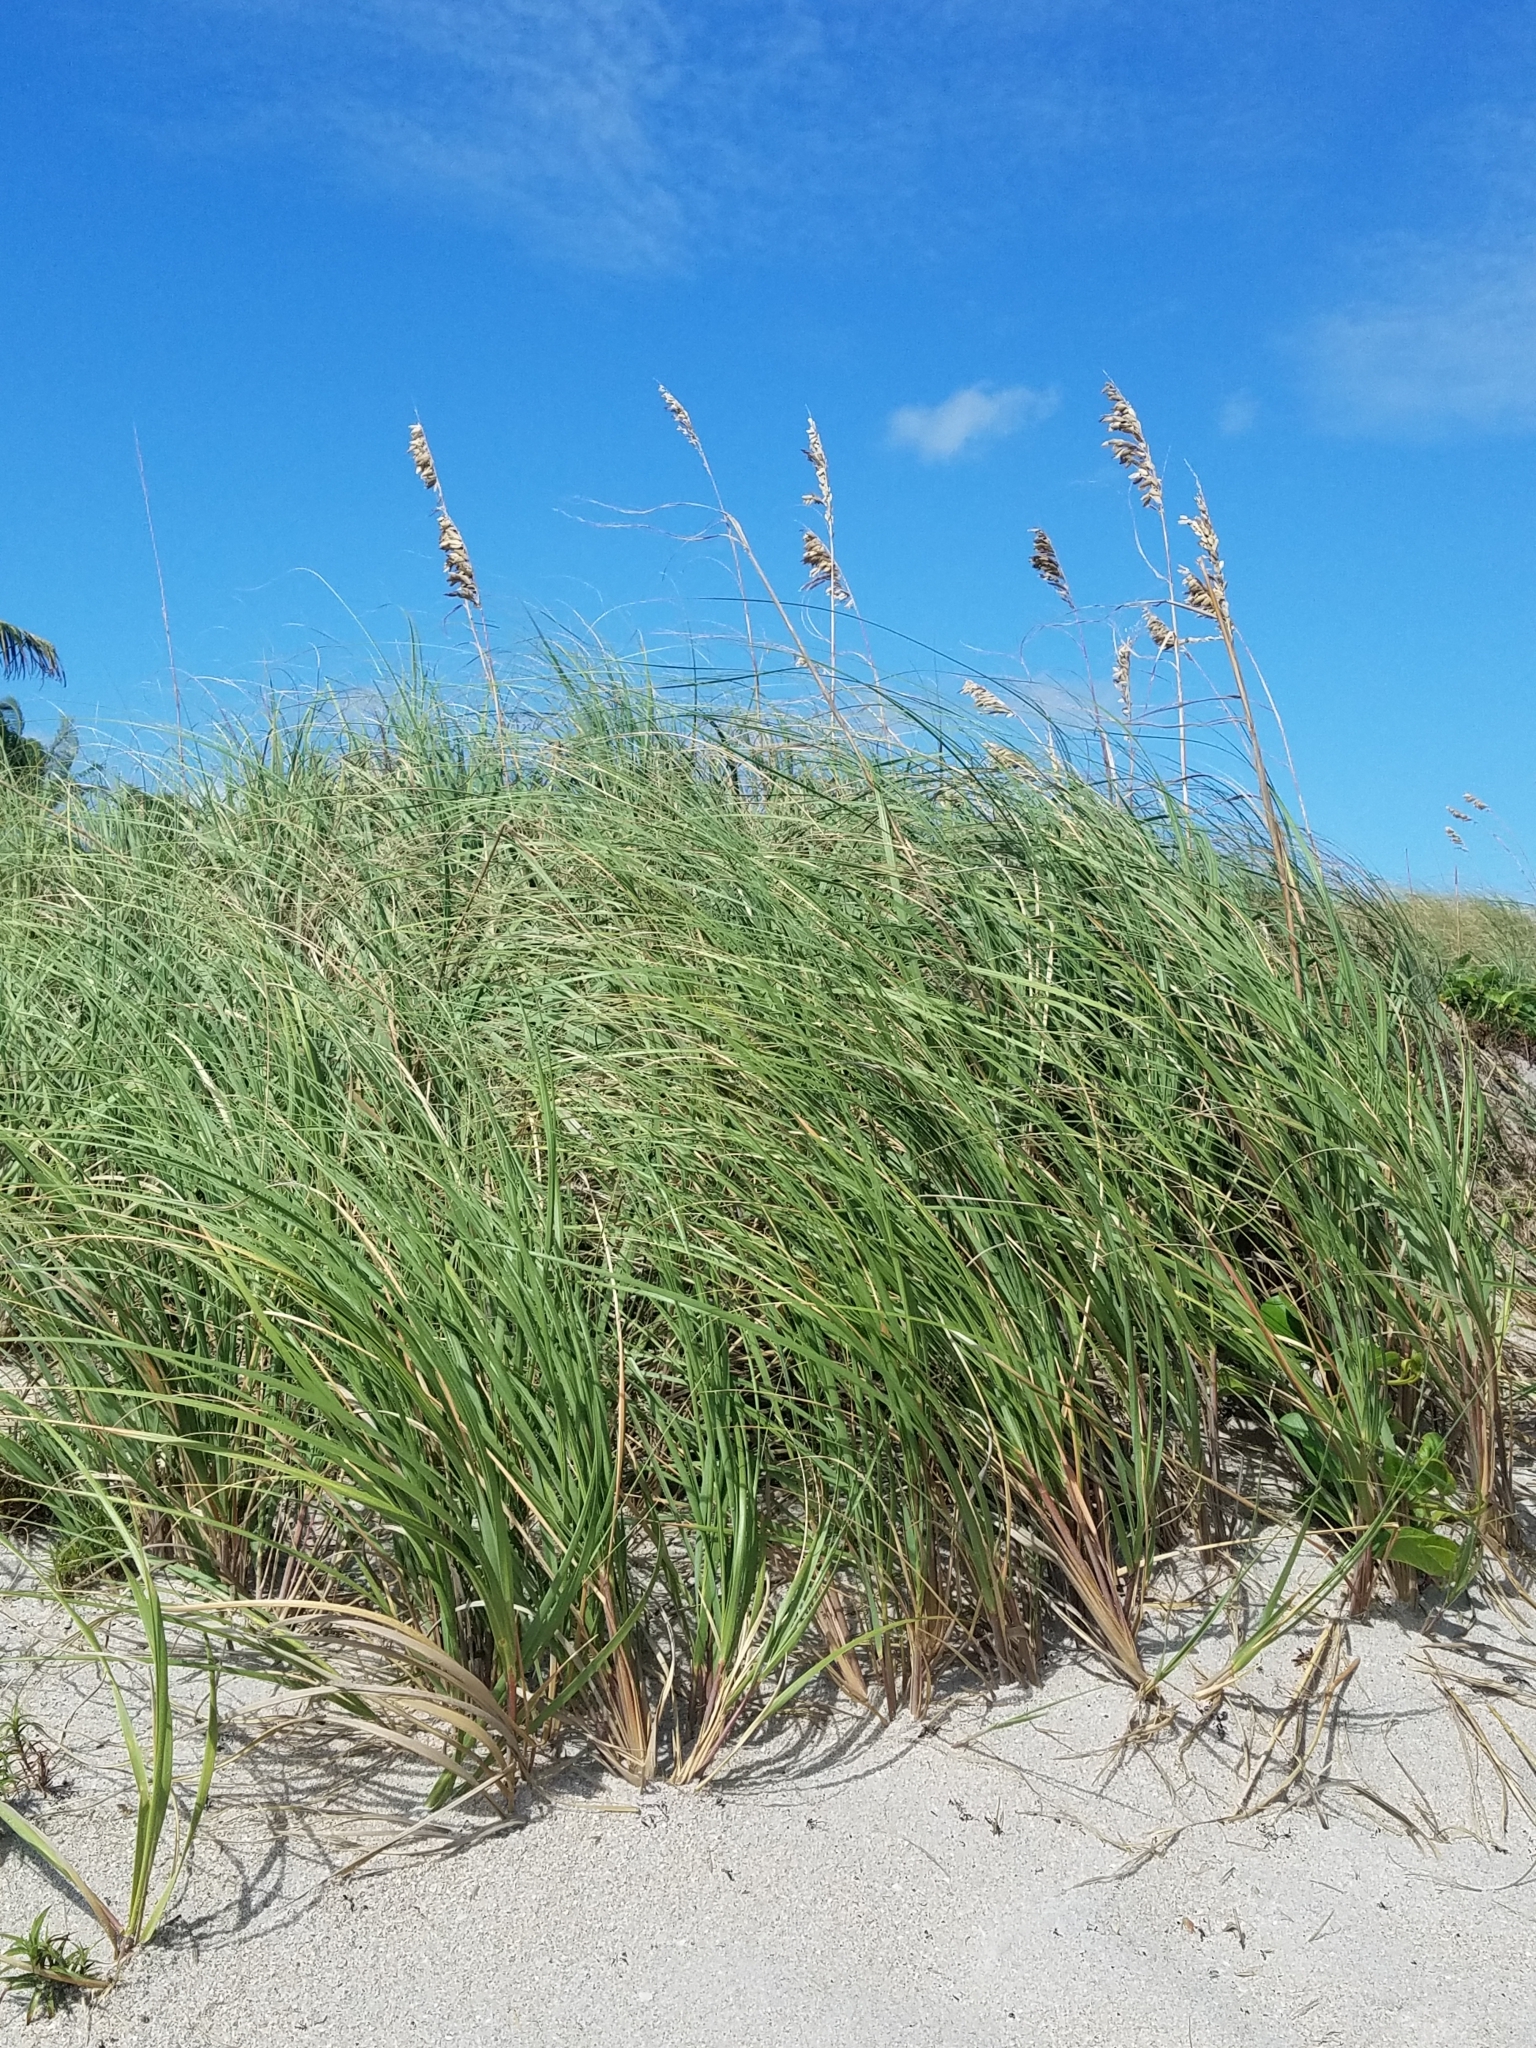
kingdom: Plantae
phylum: Tracheophyta
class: Liliopsida
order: Poales
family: Poaceae
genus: Uniola
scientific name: Uniola paniculata
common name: Seaside-oats
